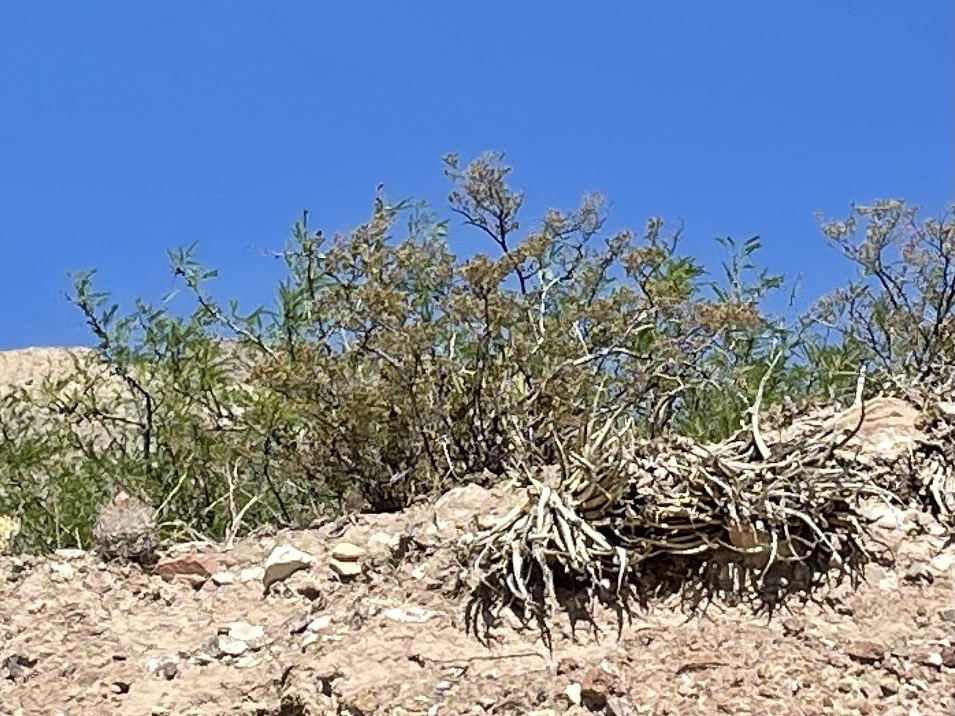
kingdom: Plantae
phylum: Tracheophyta
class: Magnoliopsida
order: Zygophyllales
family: Zygophyllaceae
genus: Larrea
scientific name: Larrea tridentata
